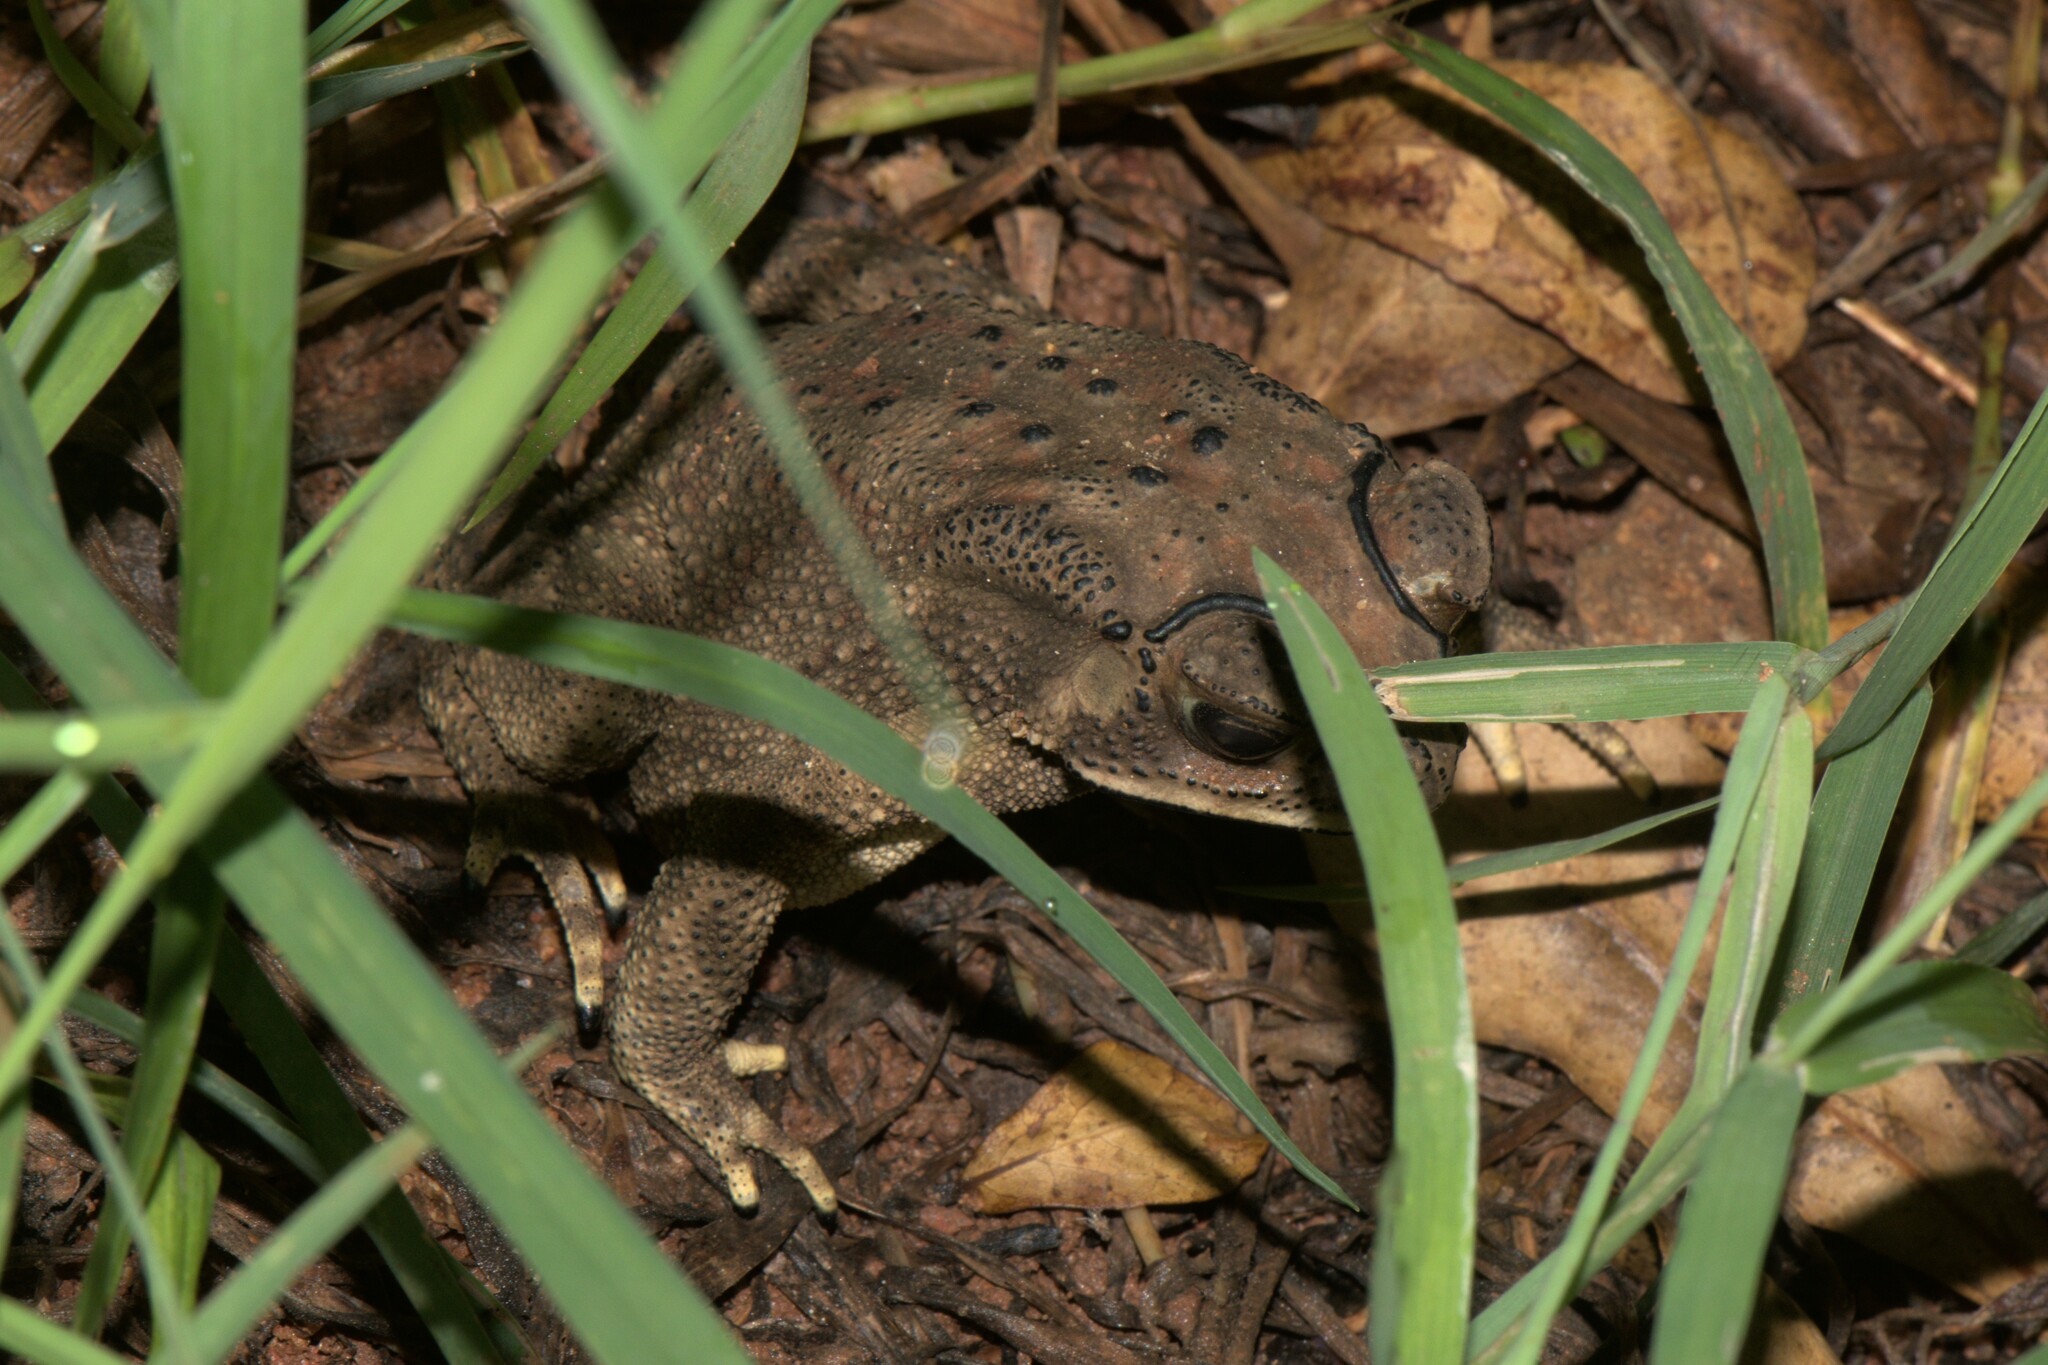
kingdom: Animalia
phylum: Chordata
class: Amphibia
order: Anura
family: Bufonidae
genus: Duttaphrynus
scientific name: Duttaphrynus melanostictus
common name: Common sunda toad
